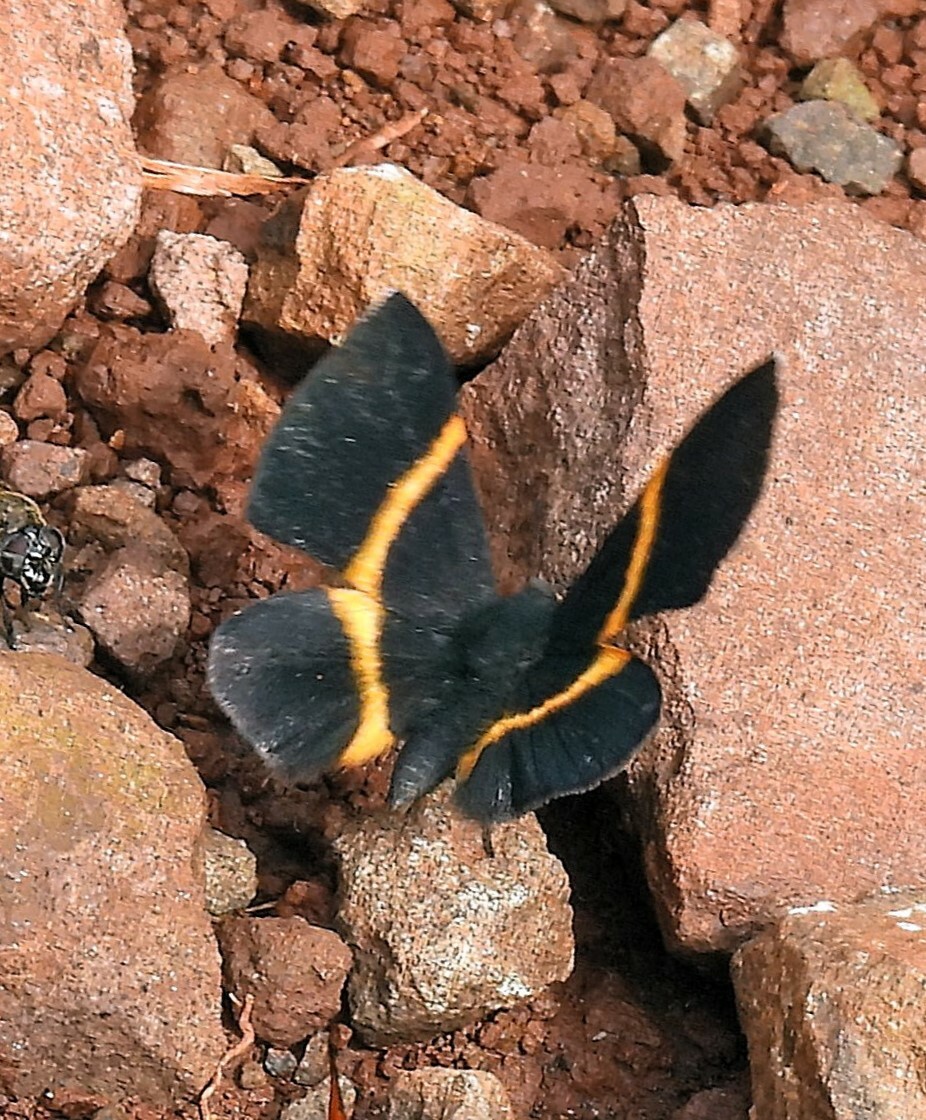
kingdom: Animalia
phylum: Arthropoda
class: Insecta
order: Lepidoptera
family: Riodinidae
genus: Parcella
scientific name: Parcella amarynthina
